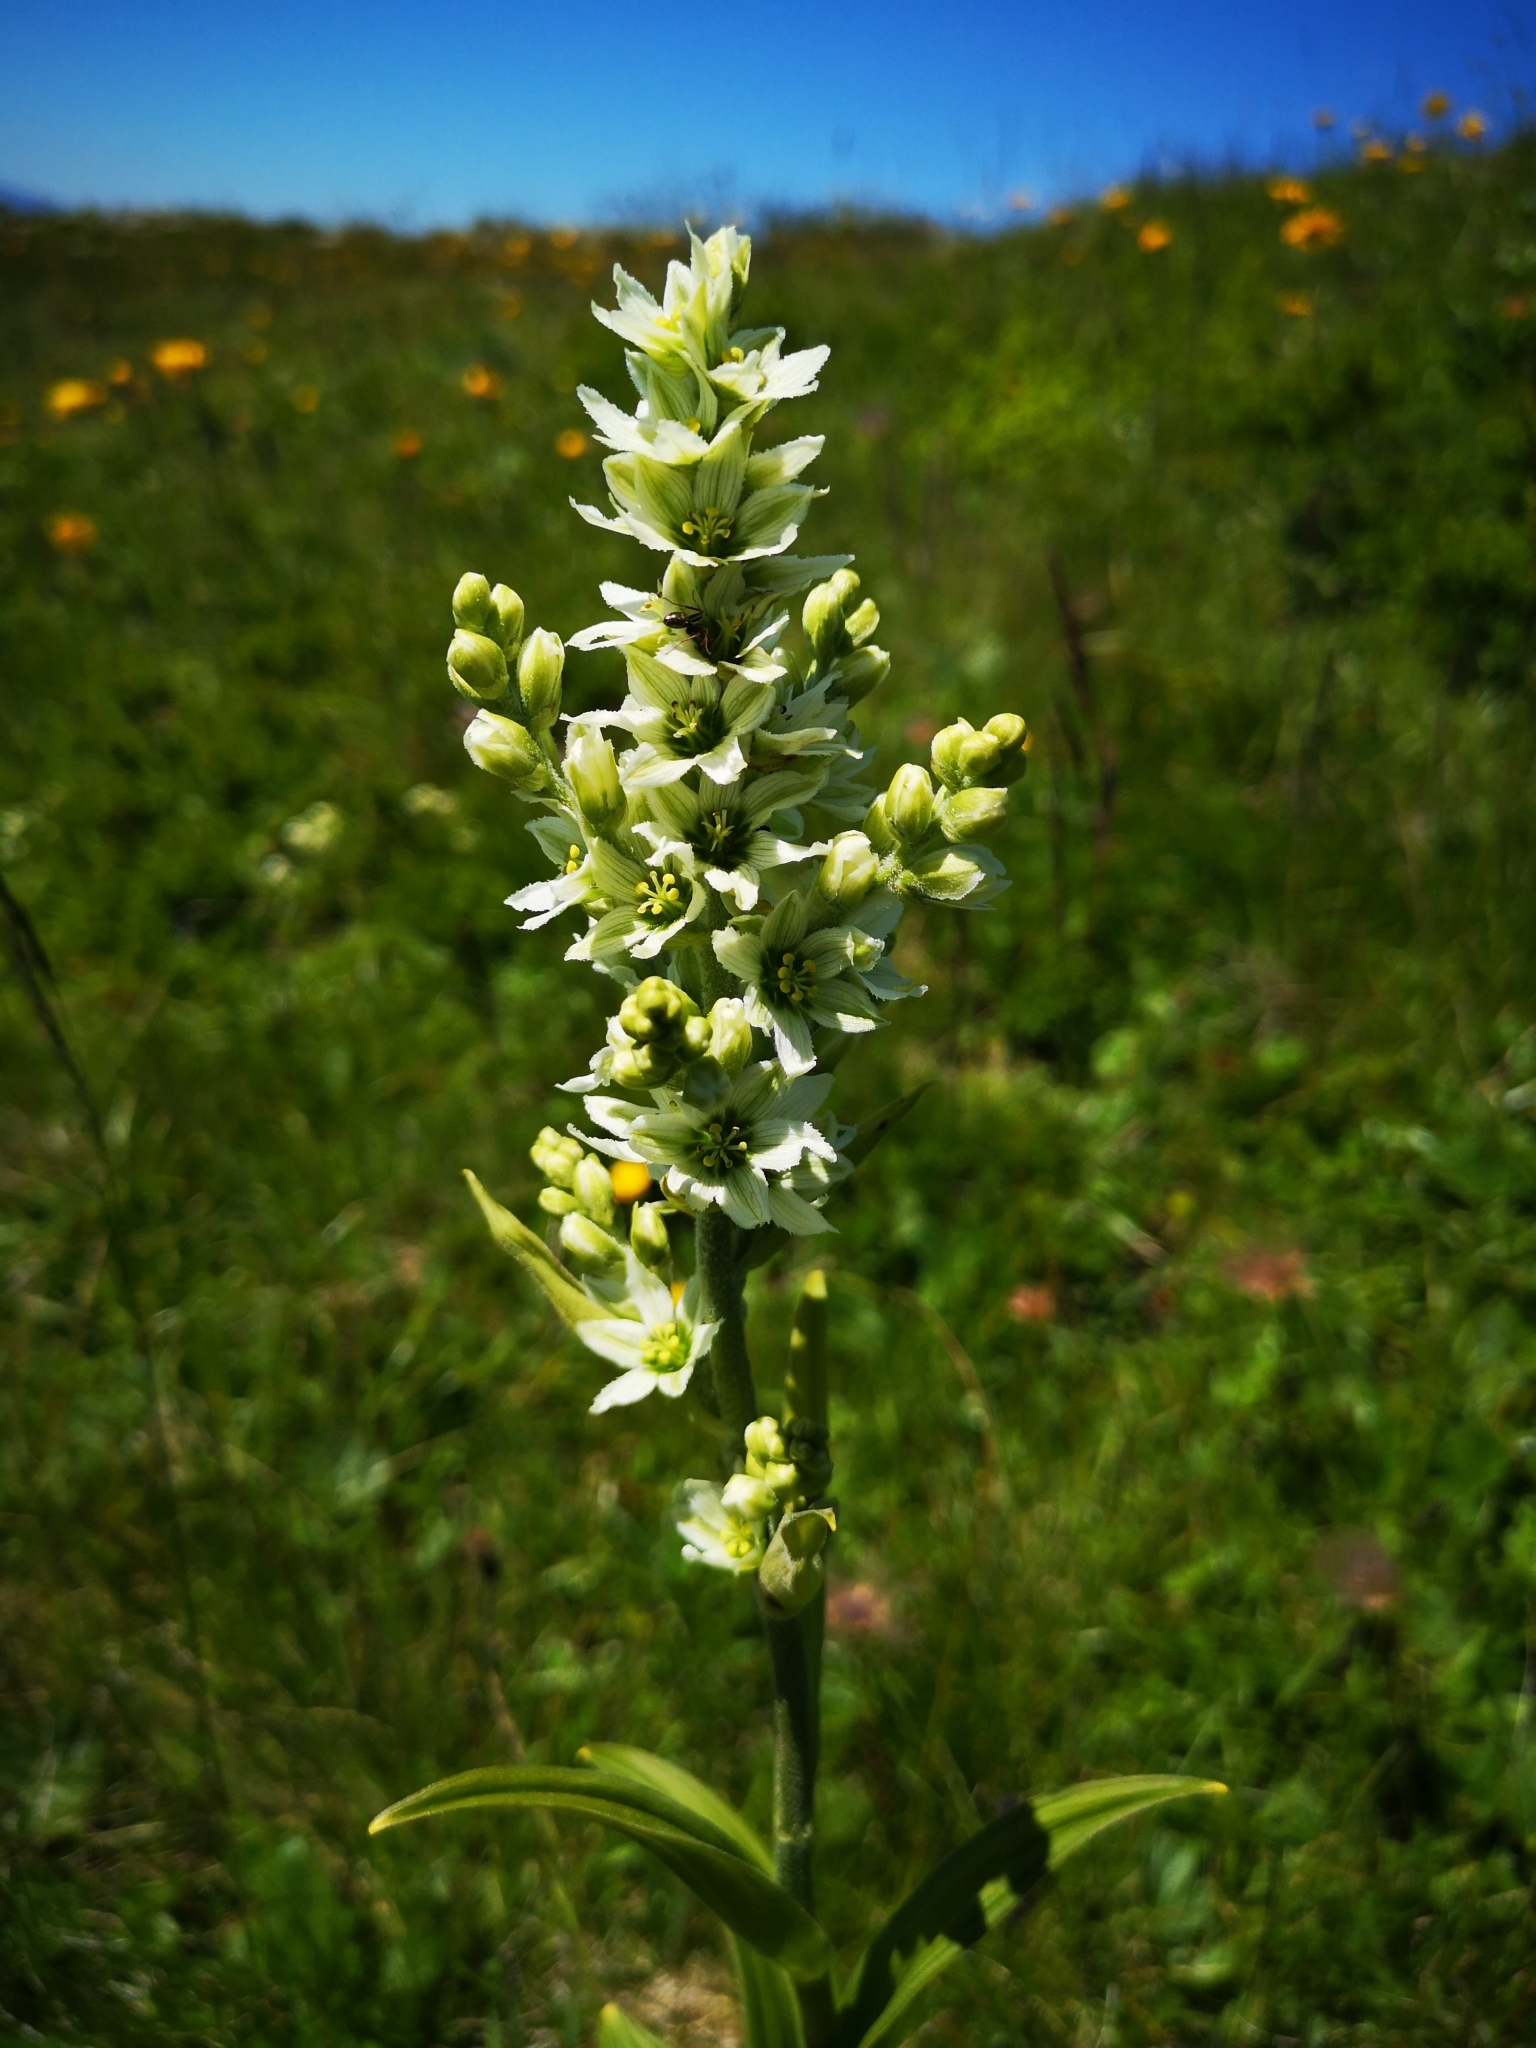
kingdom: Plantae
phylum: Tracheophyta
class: Liliopsida
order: Liliales
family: Melanthiaceae
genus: Veratrum
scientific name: Veratrum album
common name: White veratrum
